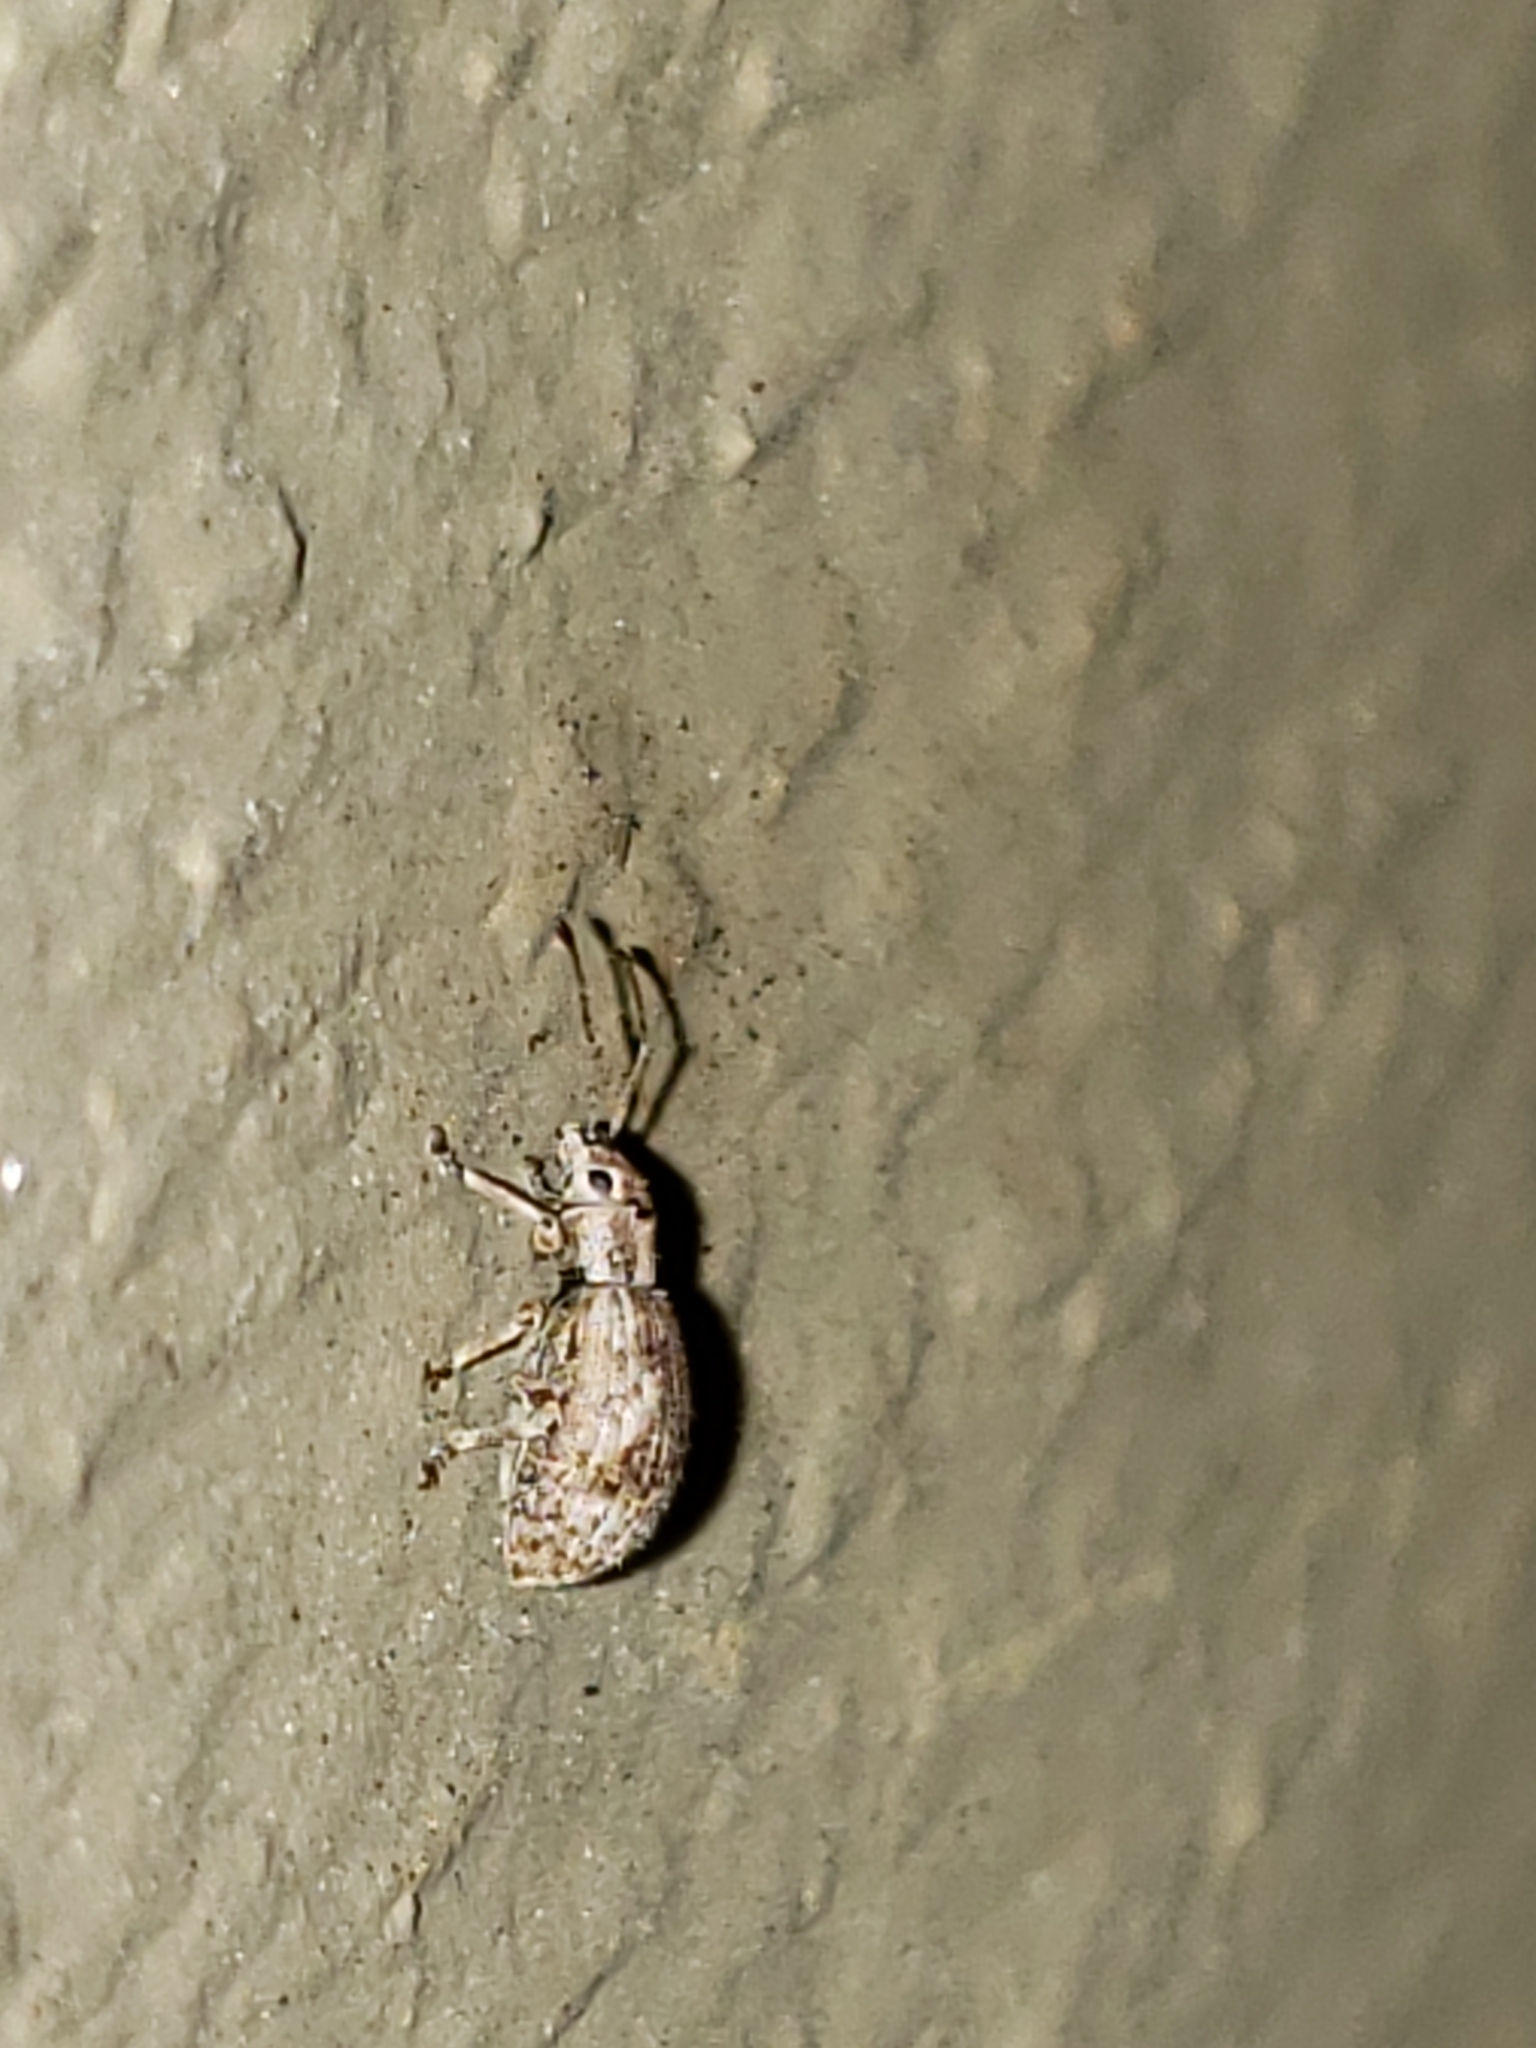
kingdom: Animalia
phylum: Arthropoda
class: Insecta
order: Coleoptera
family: Curculionidae
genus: Pseudoedophrys
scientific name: Pseudoedophrys hilleri
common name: Weevil
